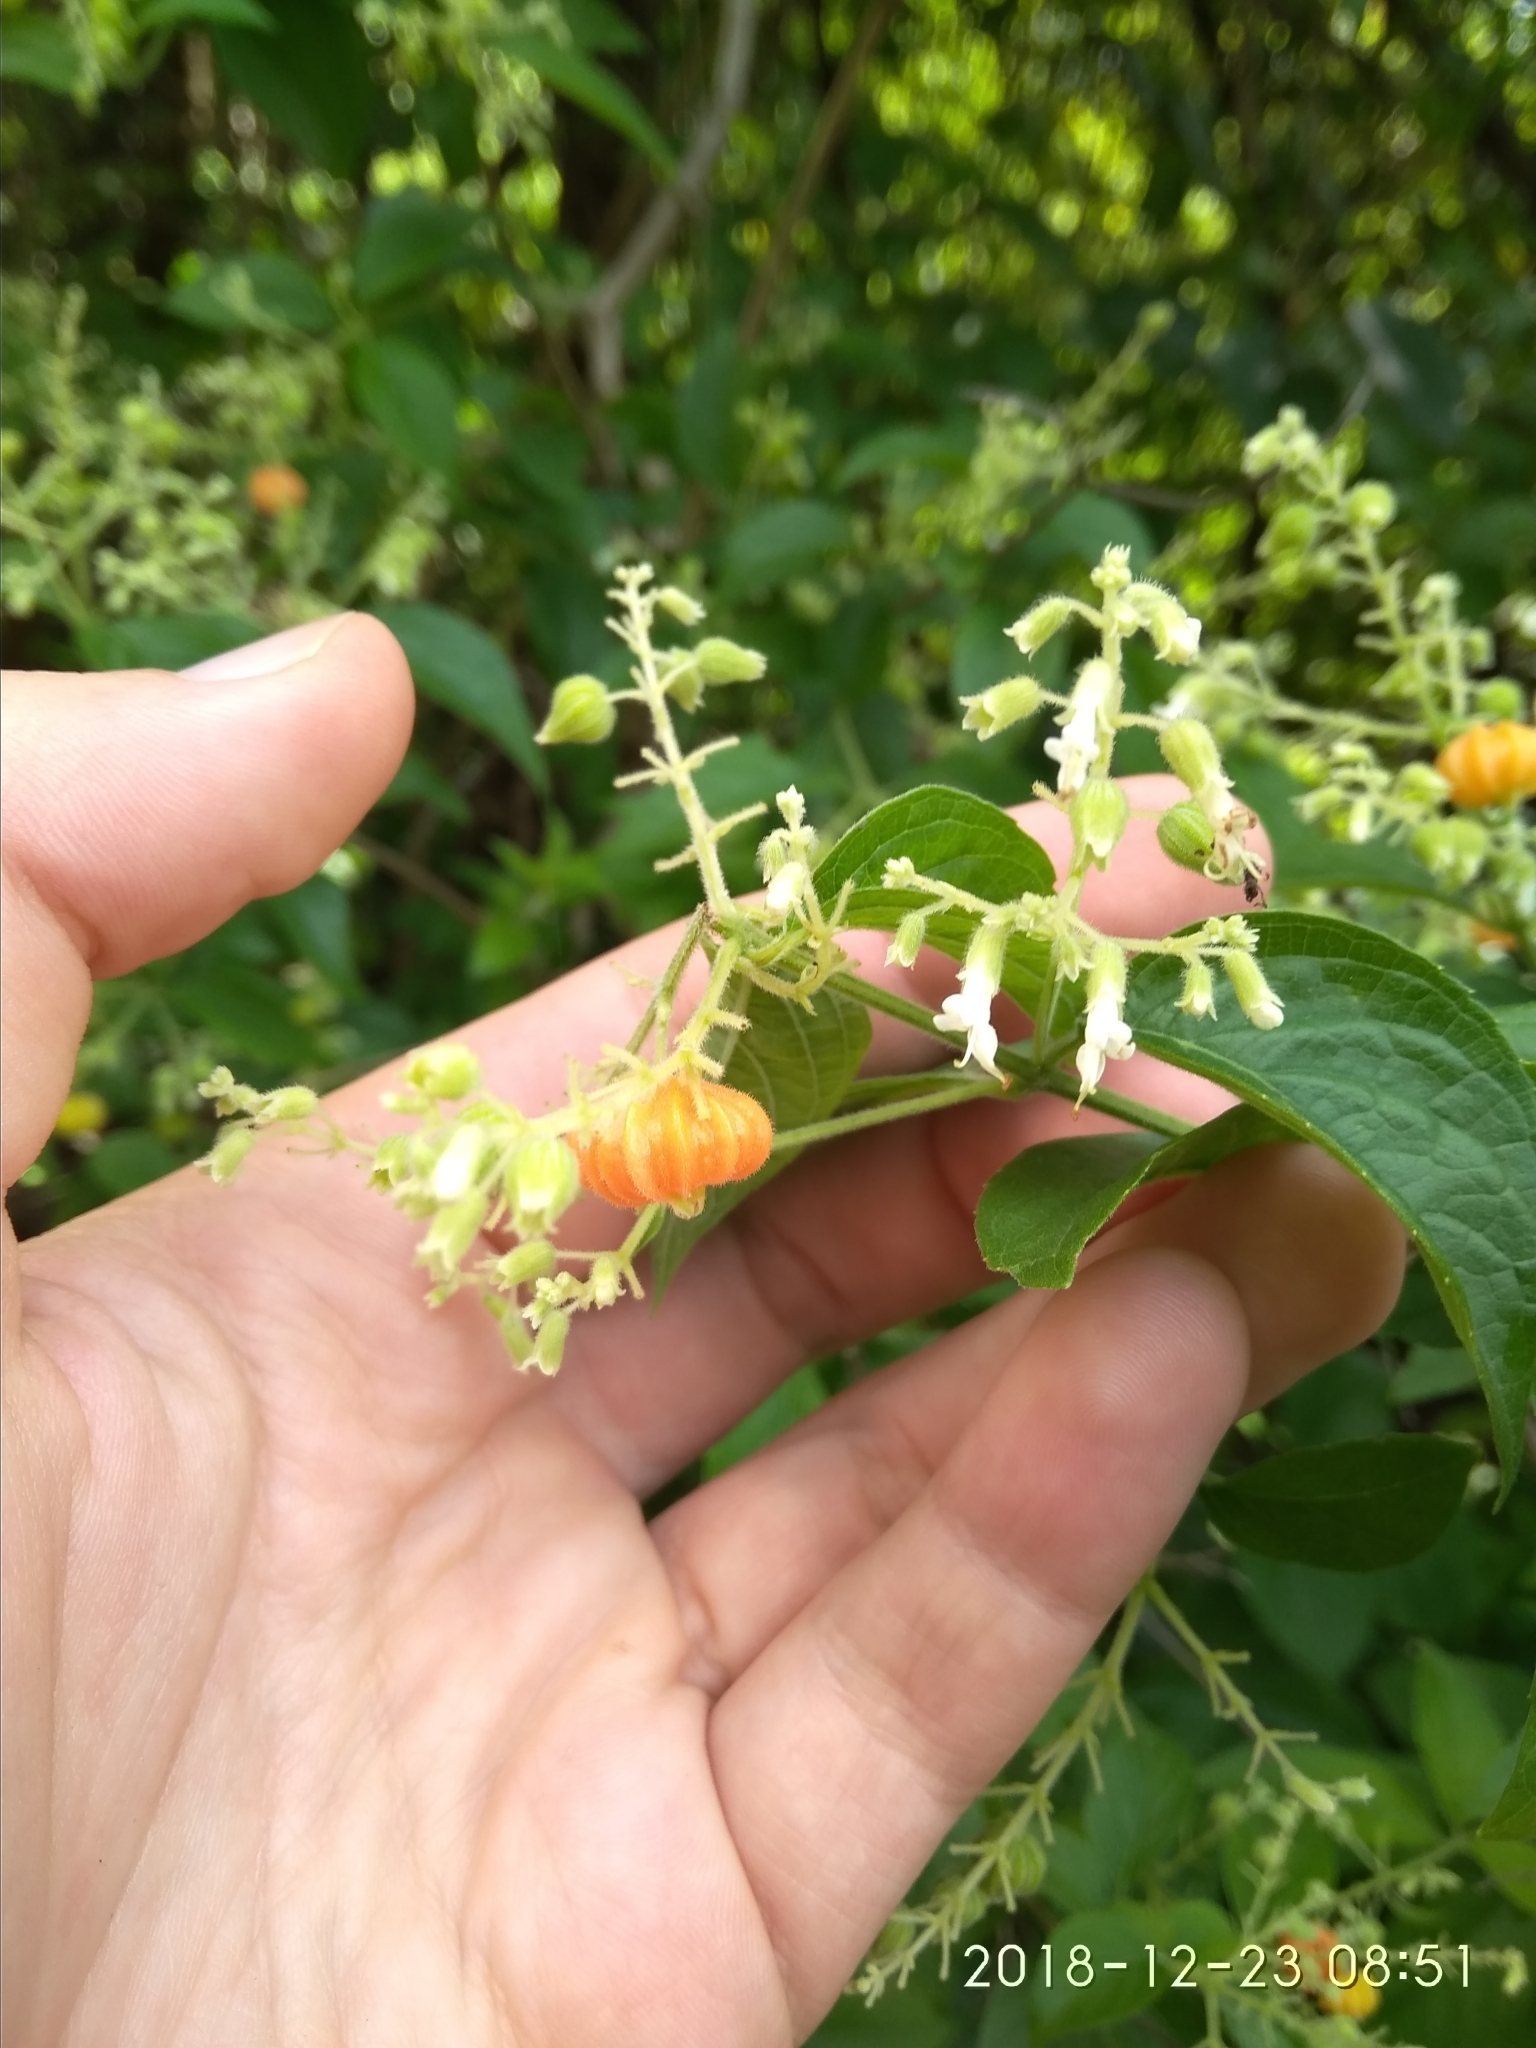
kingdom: Plantae
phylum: Tracheophyta
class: Magnoliopsida
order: Lamiales
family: Lamiaceae
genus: Hoslundia
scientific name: Hoslundia opposita
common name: Kamyuye
